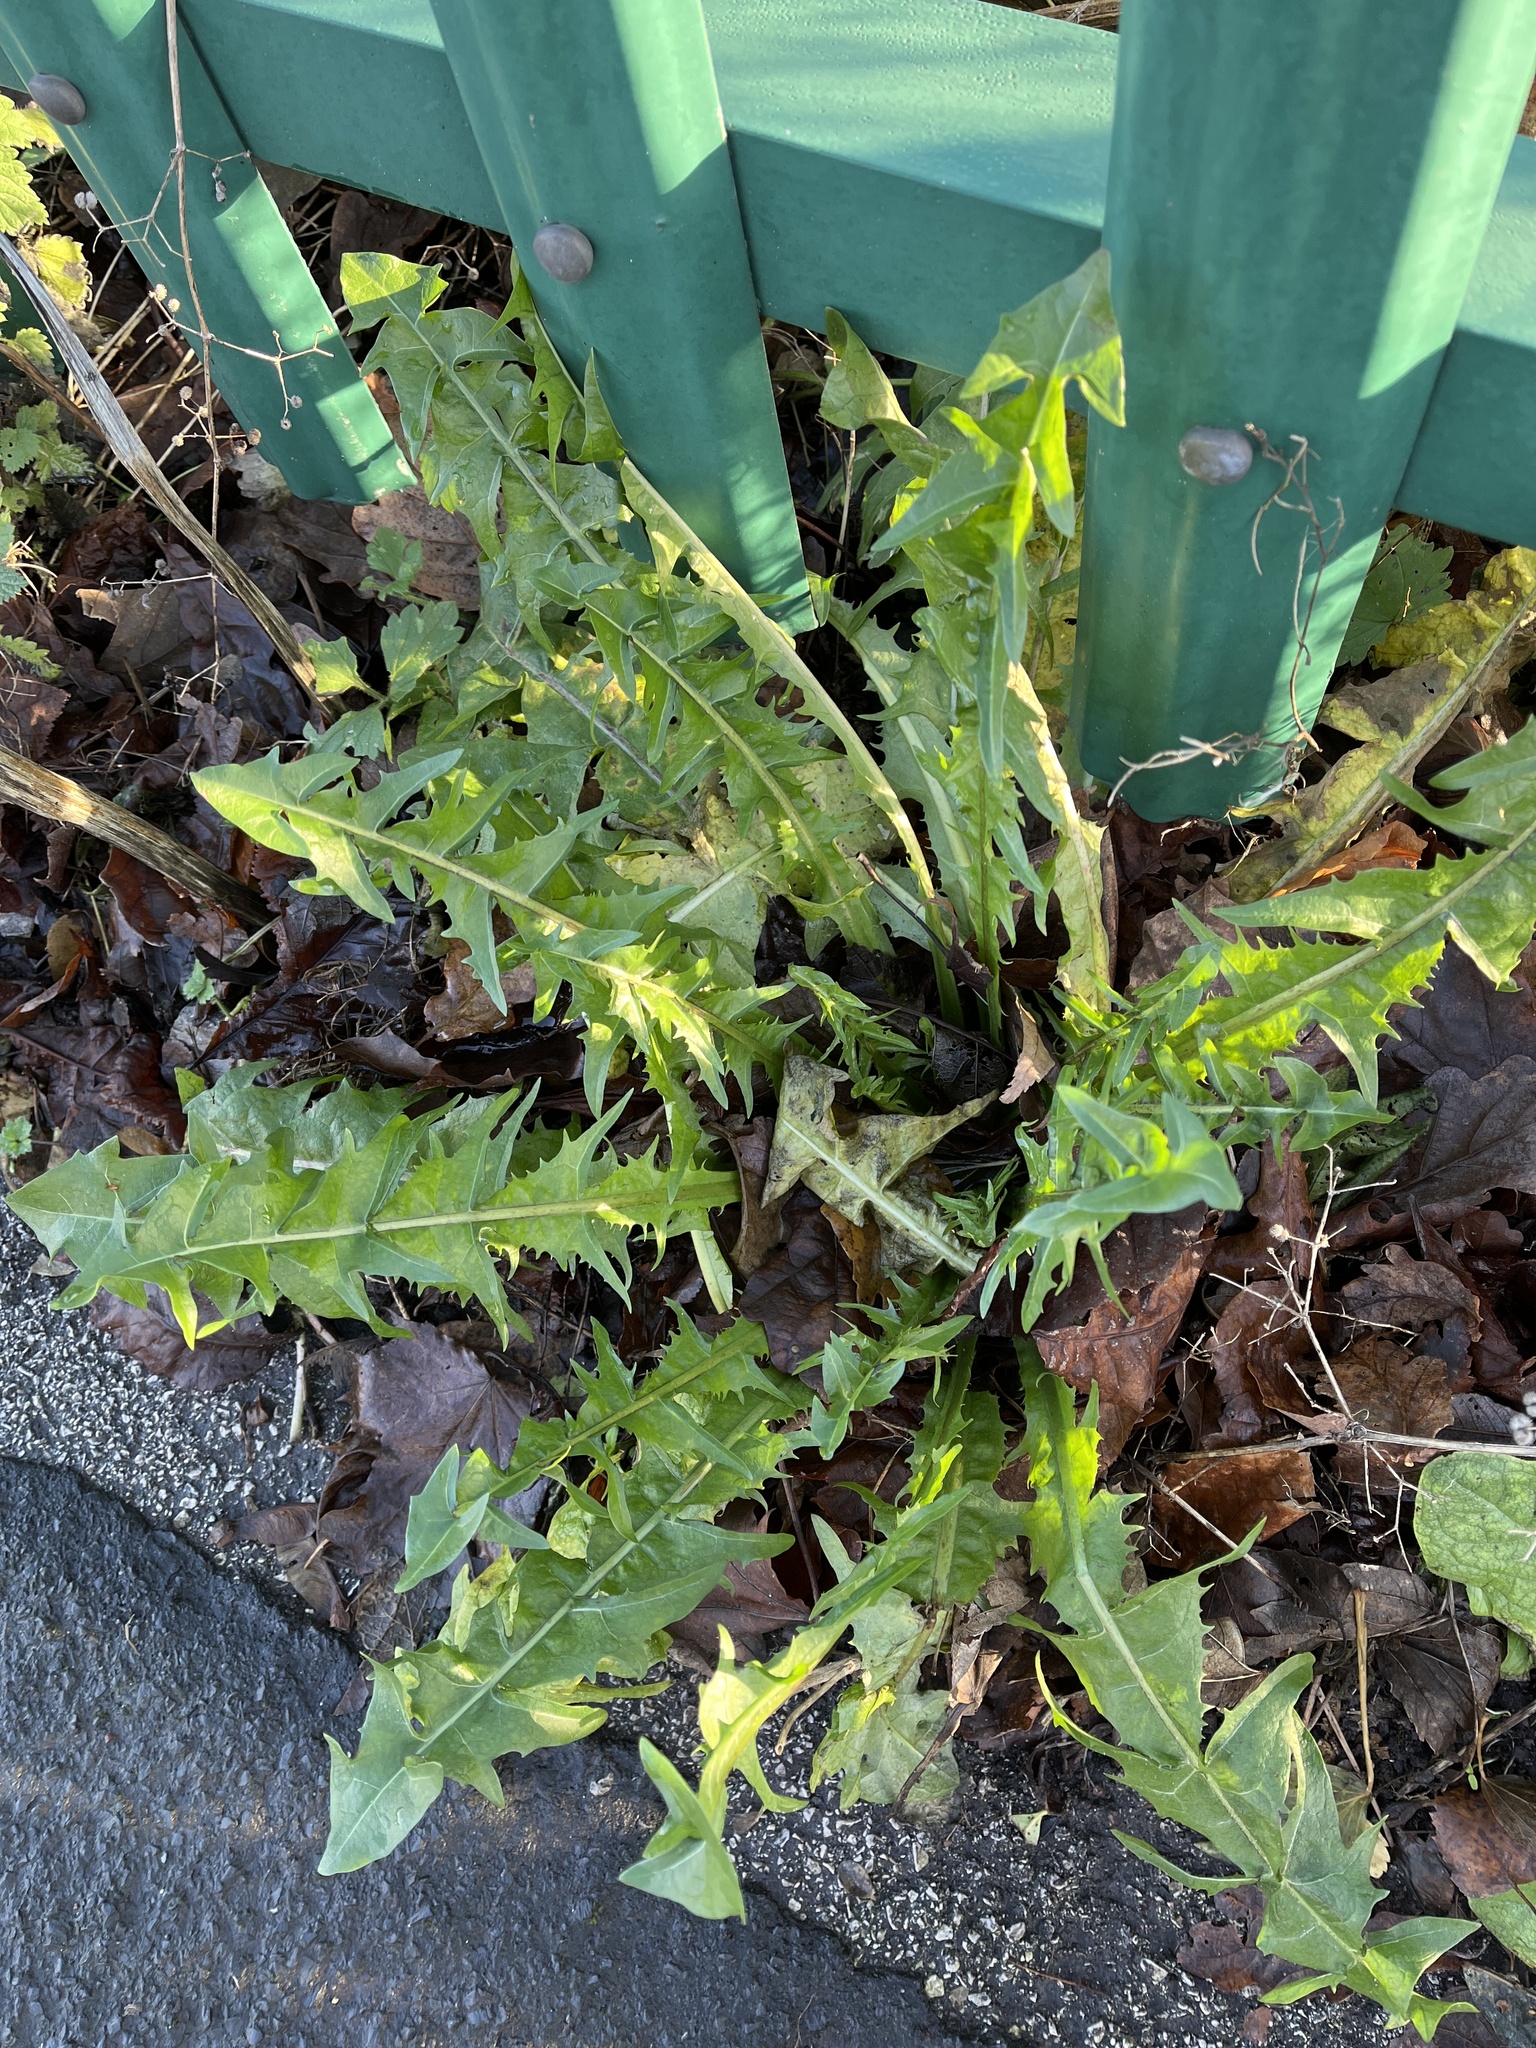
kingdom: Plantae
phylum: Tracheophyta
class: Magnoliopsida
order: Asterales
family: Asteraceae
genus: Taraxacum
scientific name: Taraxacum officinale
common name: Common dandelion
